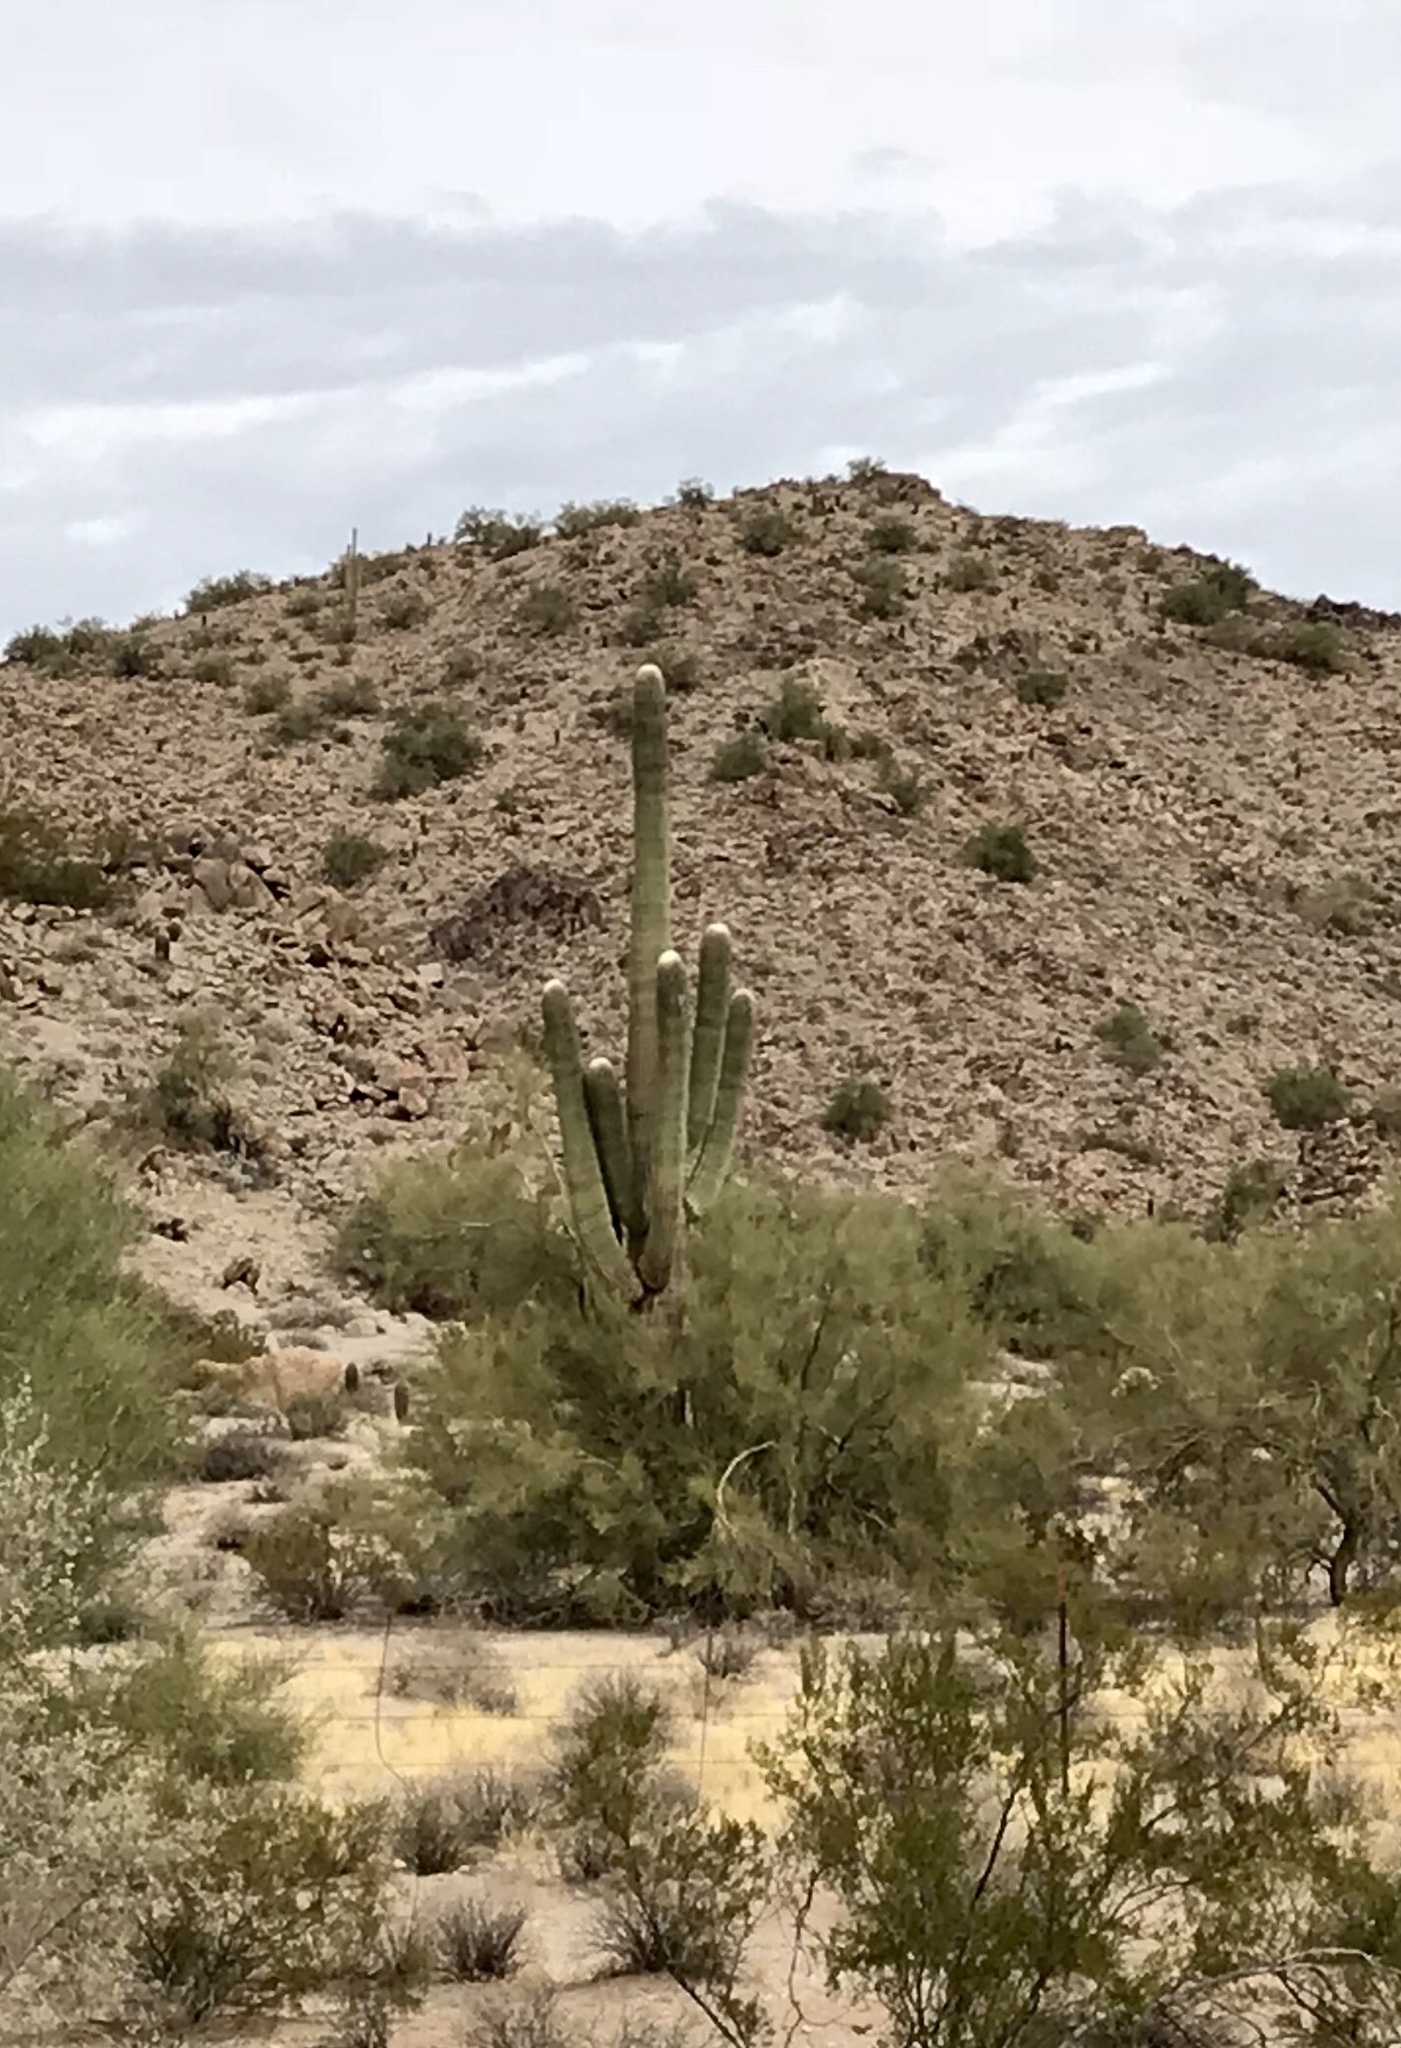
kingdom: Plantae
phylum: Tracheophyta
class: Magnoliopsida
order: Caryophyllales
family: Cactaceae
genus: Carnegiea
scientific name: Carnegiea gigantea
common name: Saguaro
